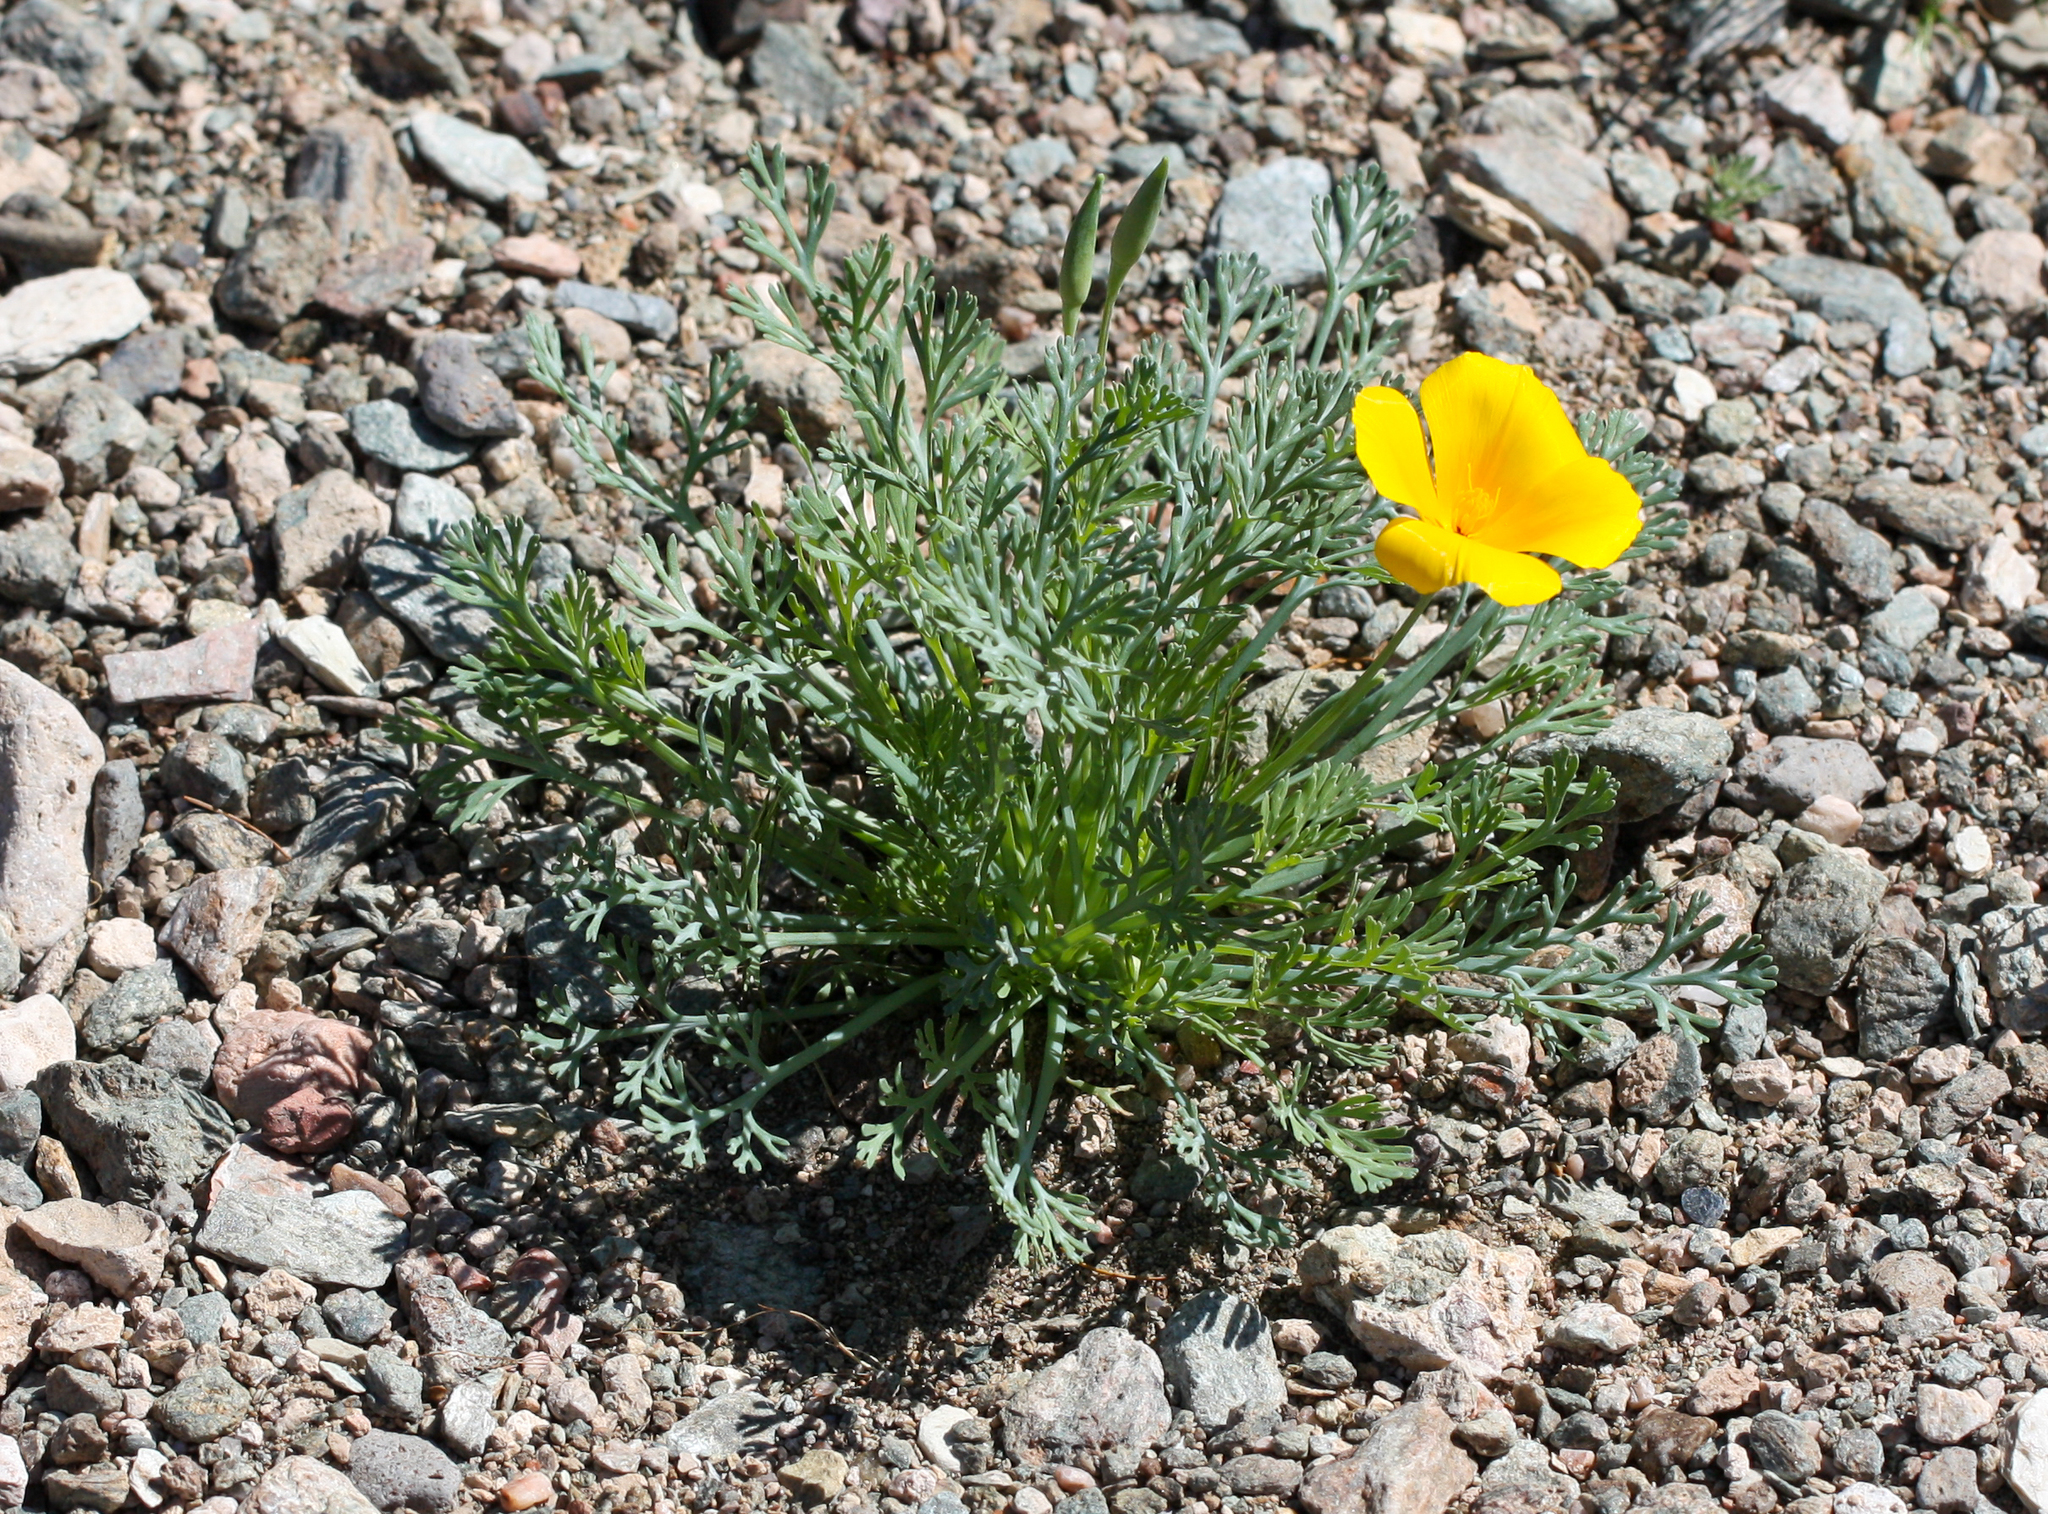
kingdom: Plantae
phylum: Tracheophyta
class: Magnoliopsida
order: Ranunculales
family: Papaveraceae
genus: Eschscholzia
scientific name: Eschscholzia californica
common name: California poppy
